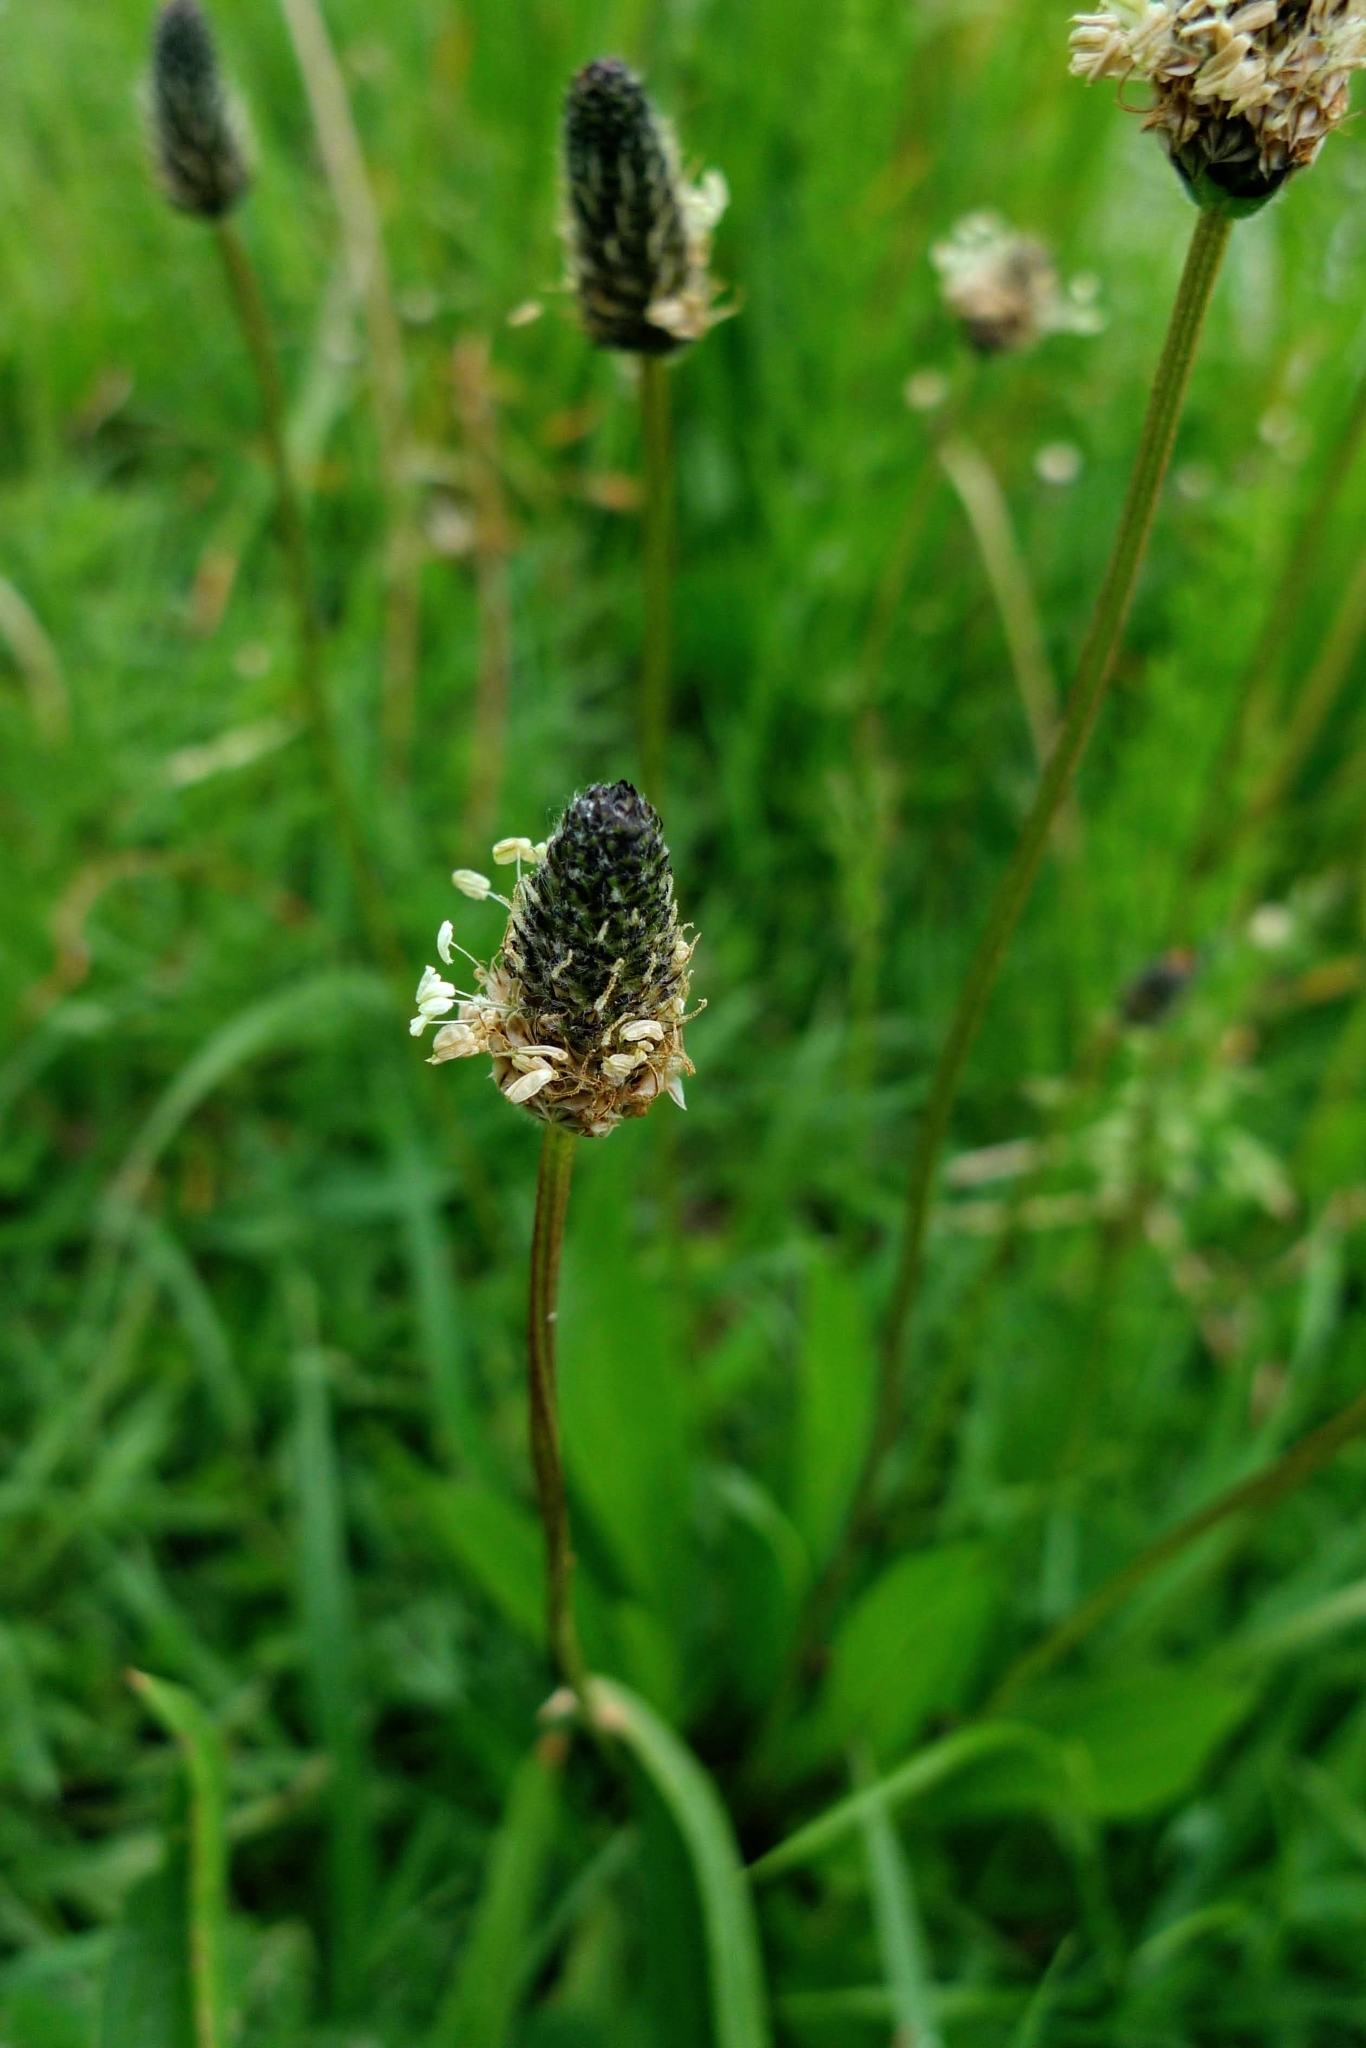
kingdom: Plantae
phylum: Tracheophyta
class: Magnoliopsida
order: Lamiales
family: Plantaginaceae
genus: Plantago
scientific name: Plantago lanceolata
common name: Ribwort plantain
